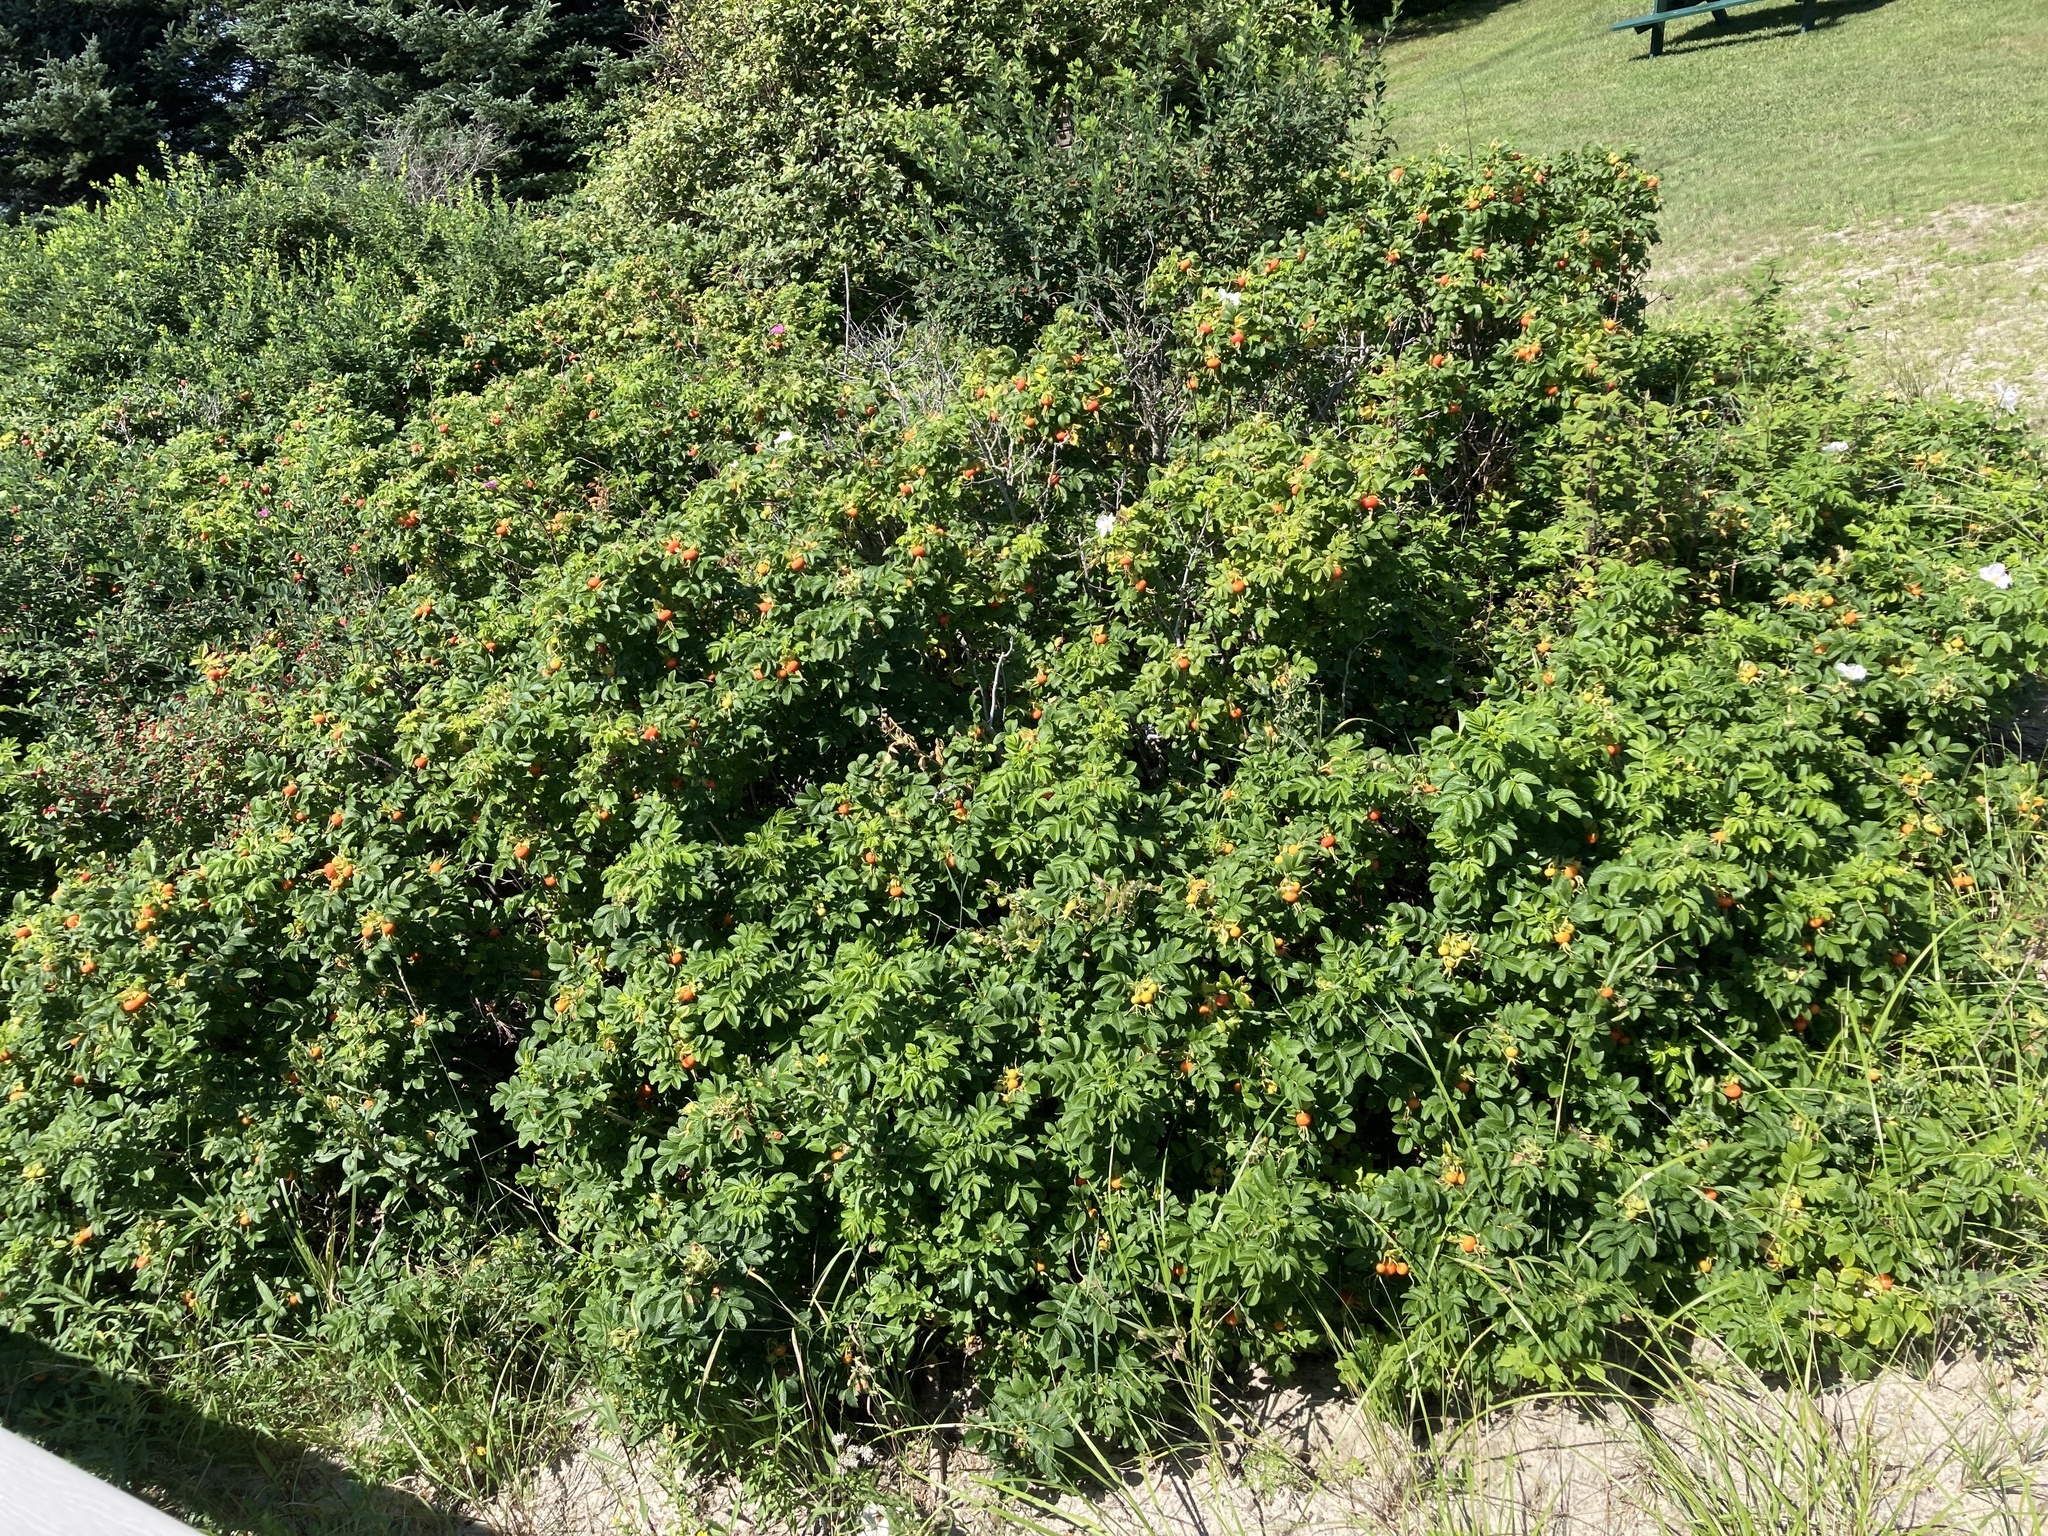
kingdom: Plantae
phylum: Tracheophyta
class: Magnoliopsida
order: Rosales
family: Rosaceae
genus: Rosa
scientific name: Rosa rugosa
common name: Japanese rose
